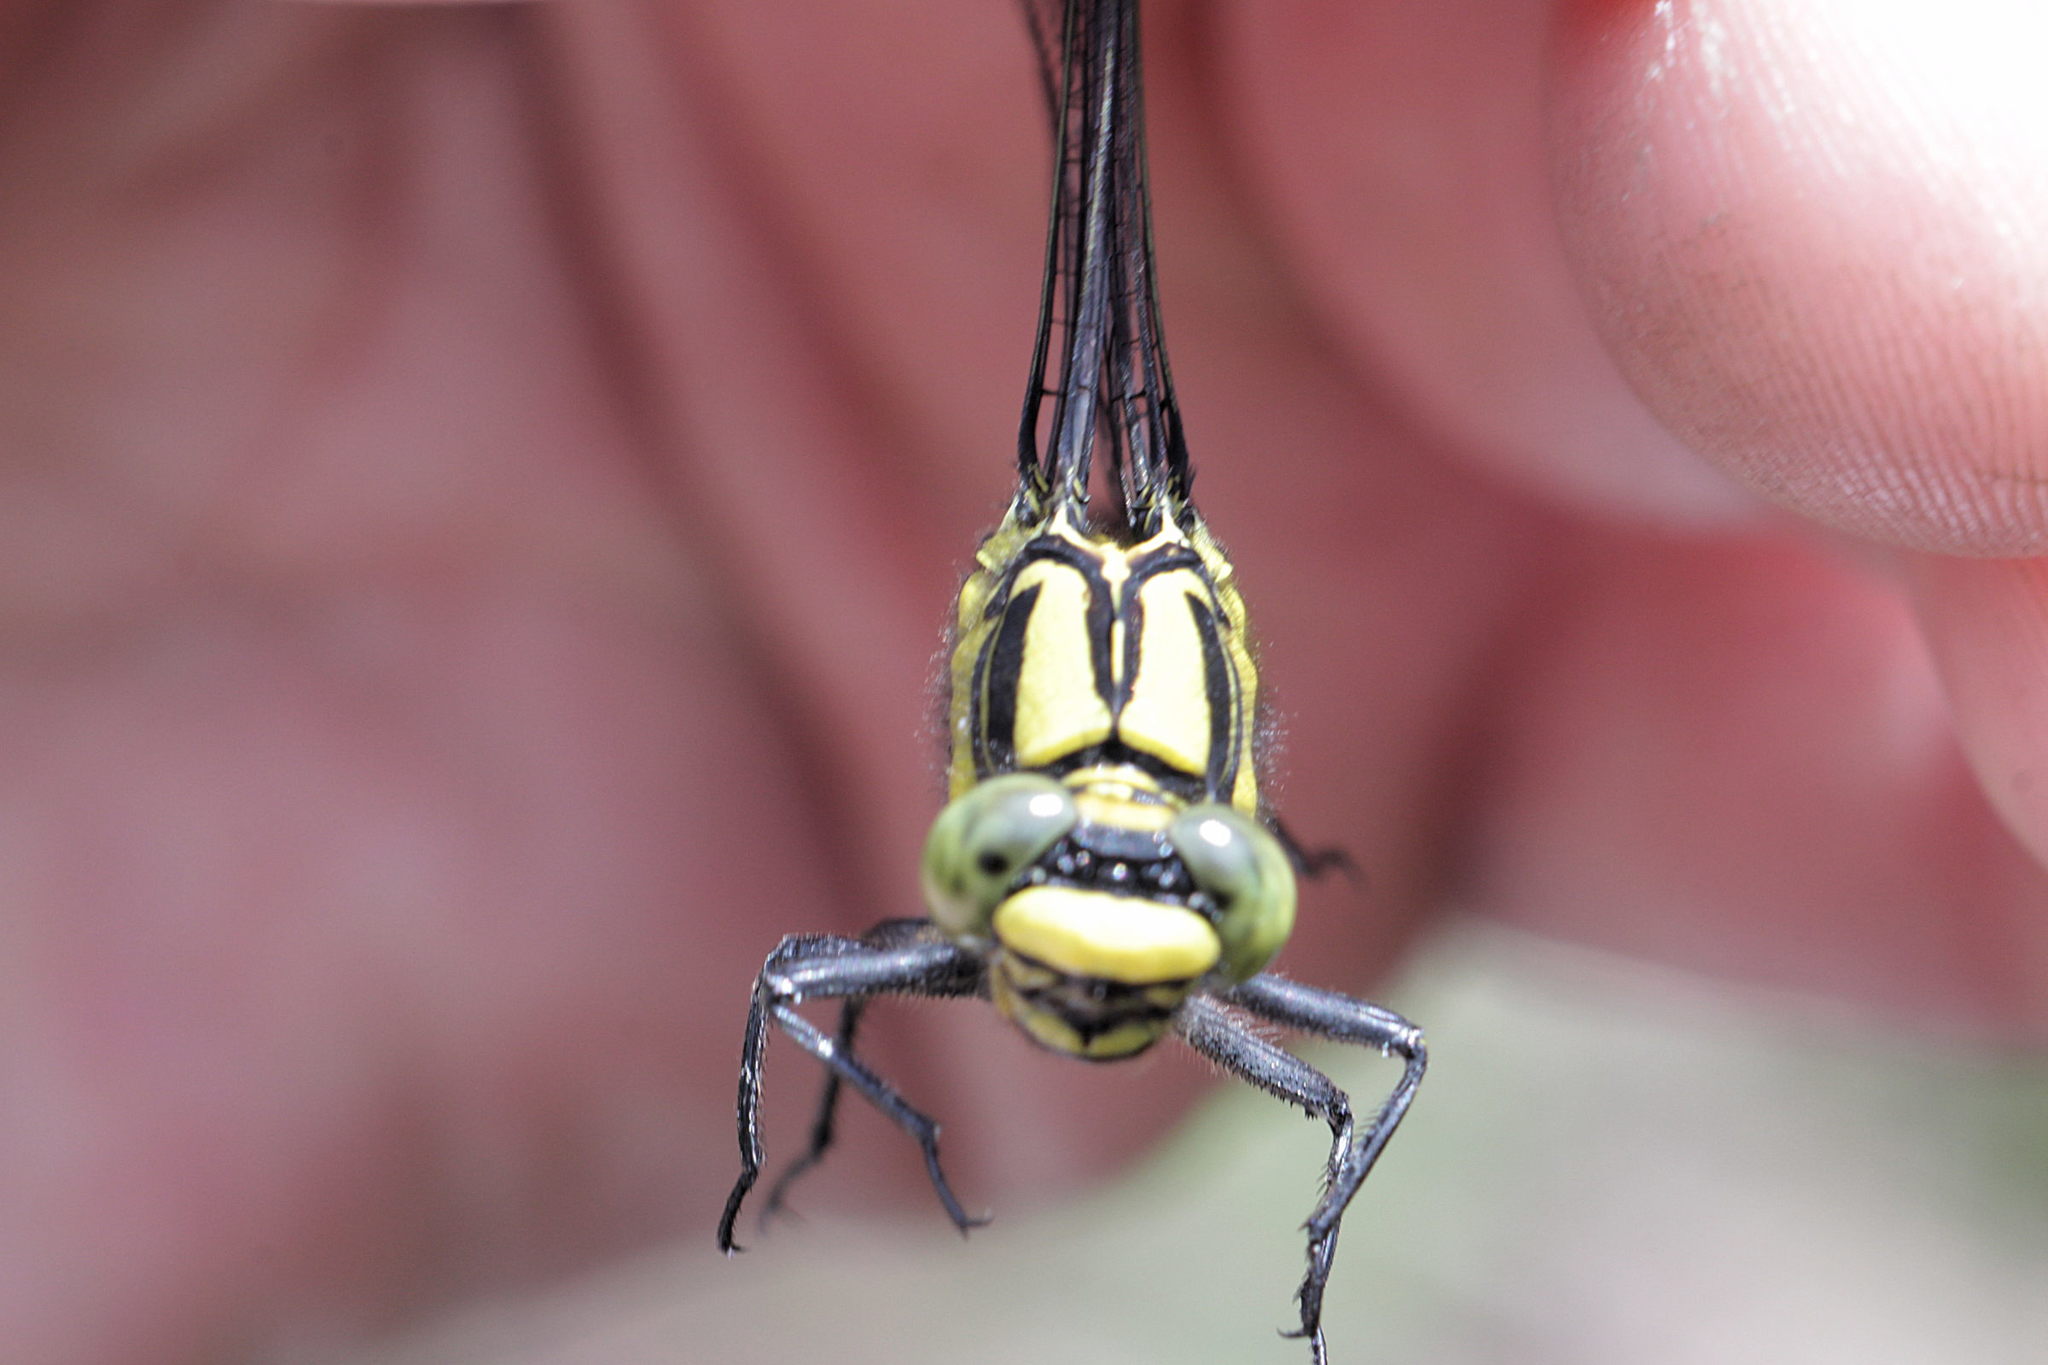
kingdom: Animalia
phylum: Arthropoda
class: Insecta
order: Odonata
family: Gomphidae
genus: Gomphus
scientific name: Gomphus vulgatissimus
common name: Club-tailed dragonfly
